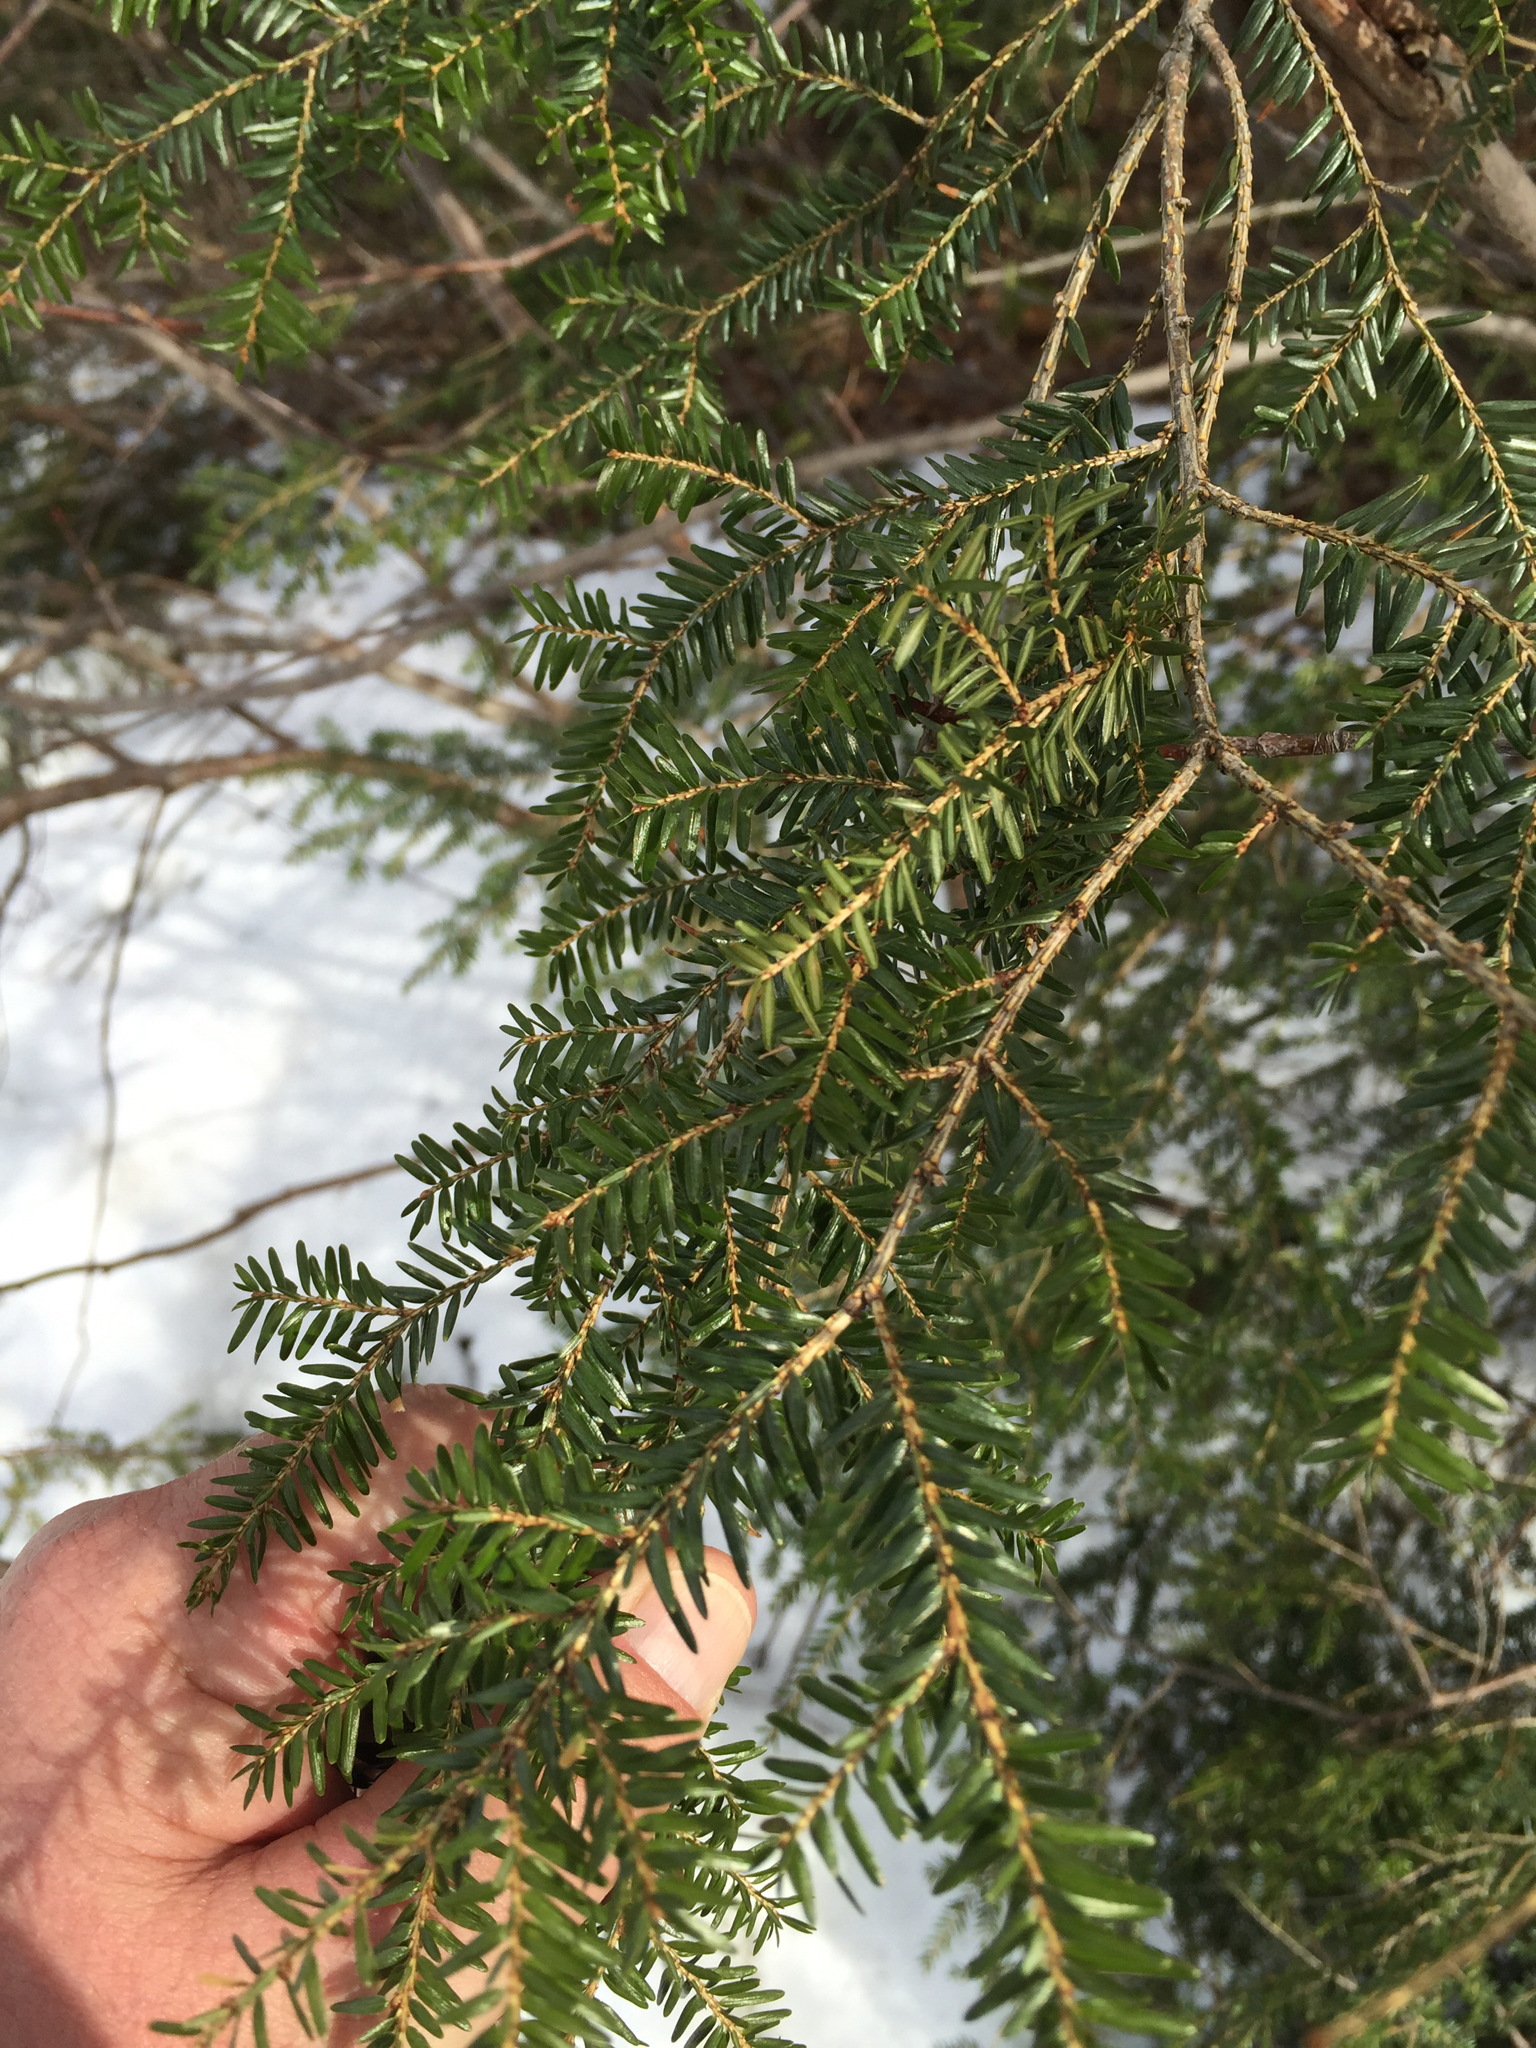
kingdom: Plantae
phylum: Tracheophyta
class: Pinopsida
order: Pinales
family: Pinaceae
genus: Tsuga
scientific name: Tsuga canadensis
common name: Eastern hemlock
